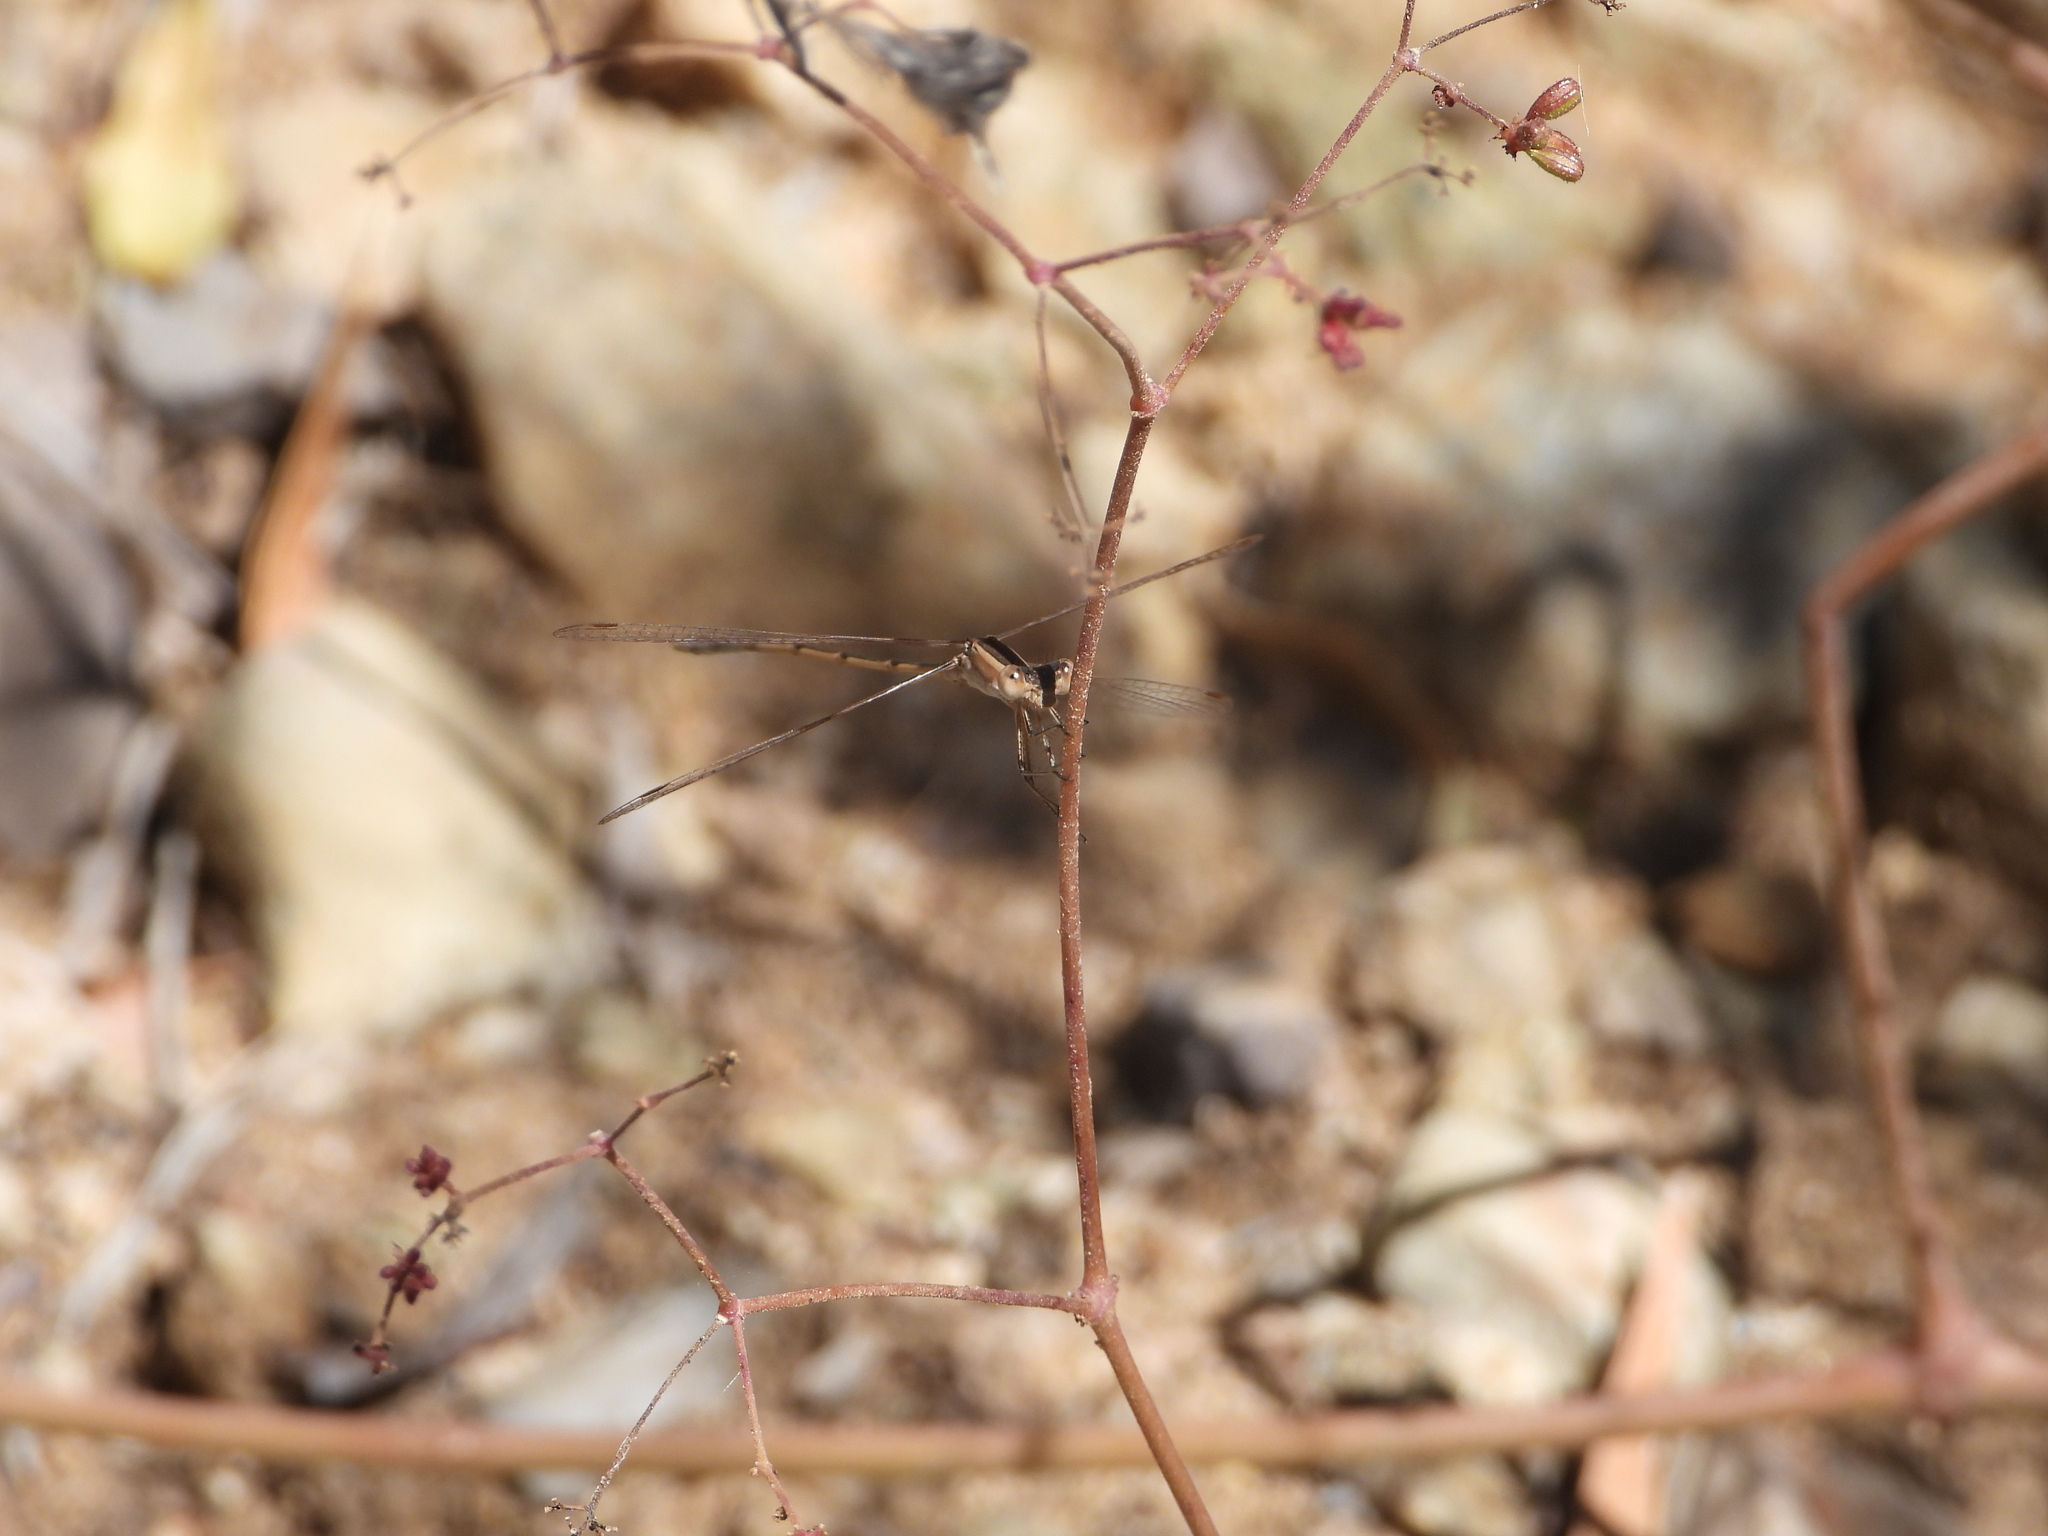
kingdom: Animalia
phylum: Arthropoda
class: Insecta
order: Odonata
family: Lestidae
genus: Lestes
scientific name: Lestes alacer
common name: Plateau spreadwing
